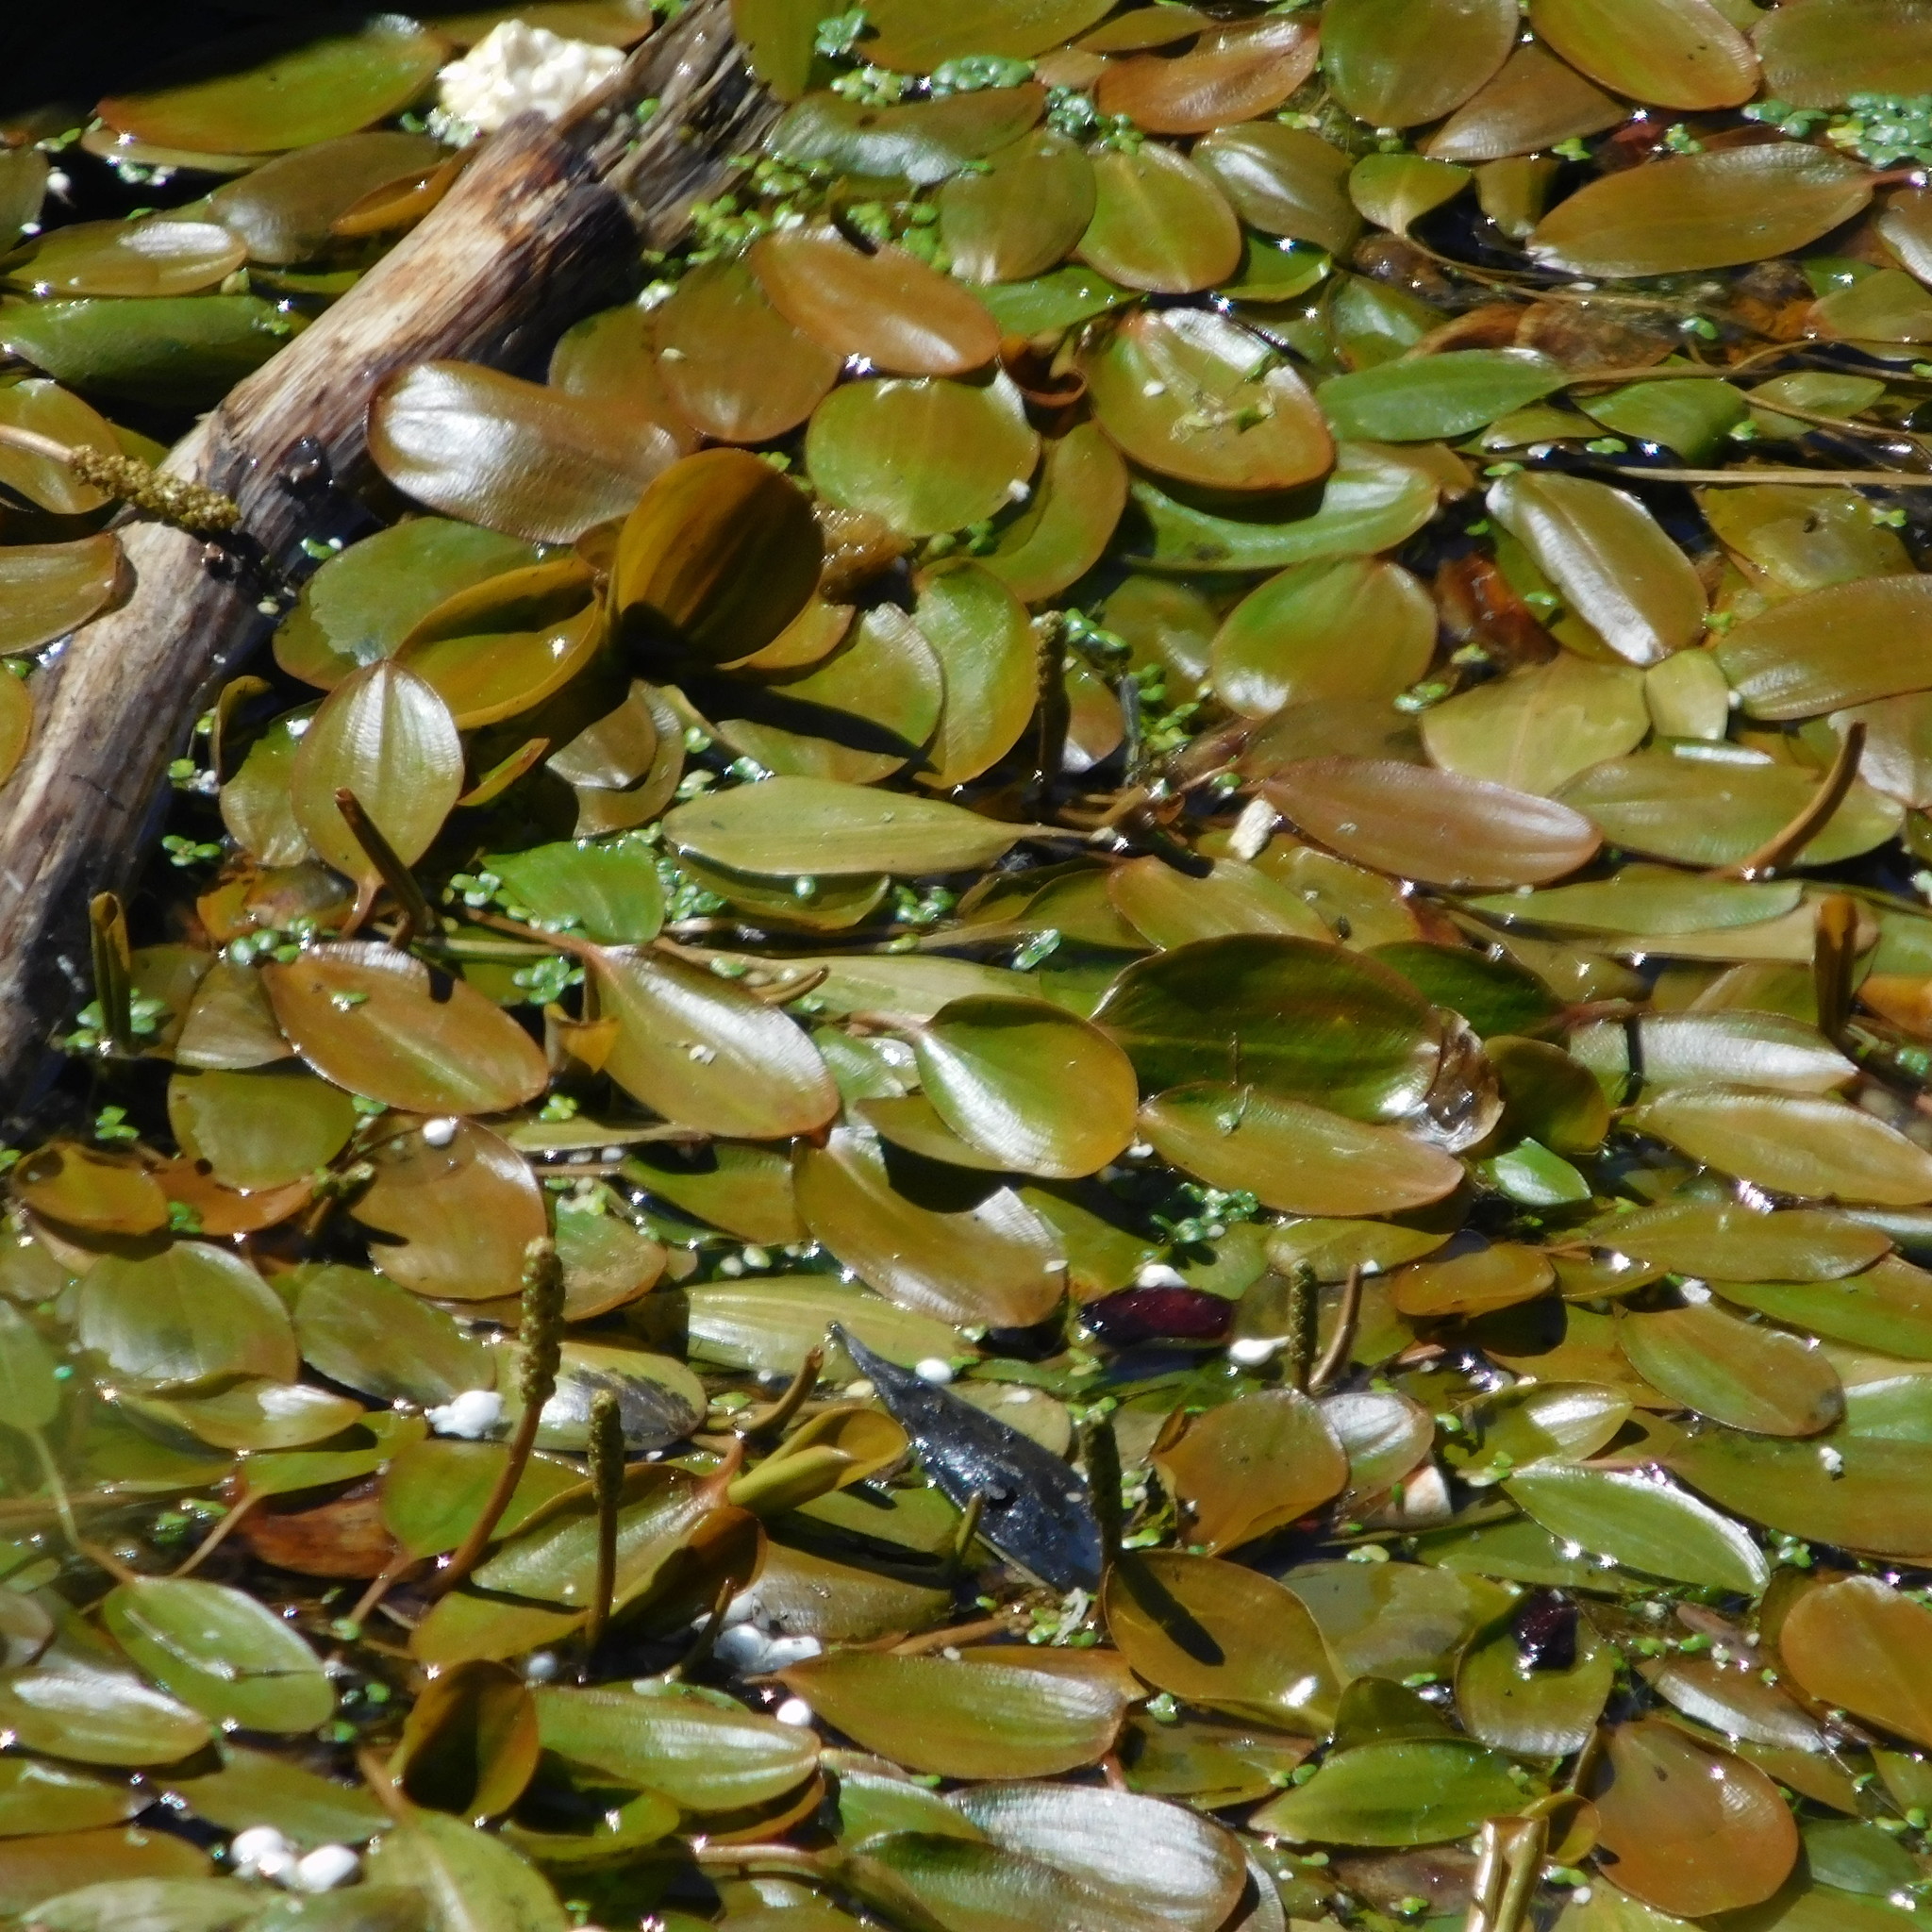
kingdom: Plantae
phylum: Tracheophyta
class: Liliopsida
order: Alismatales
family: Potamogetonaceae
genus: Potamogeton
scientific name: Potamogeton cheesemanii
